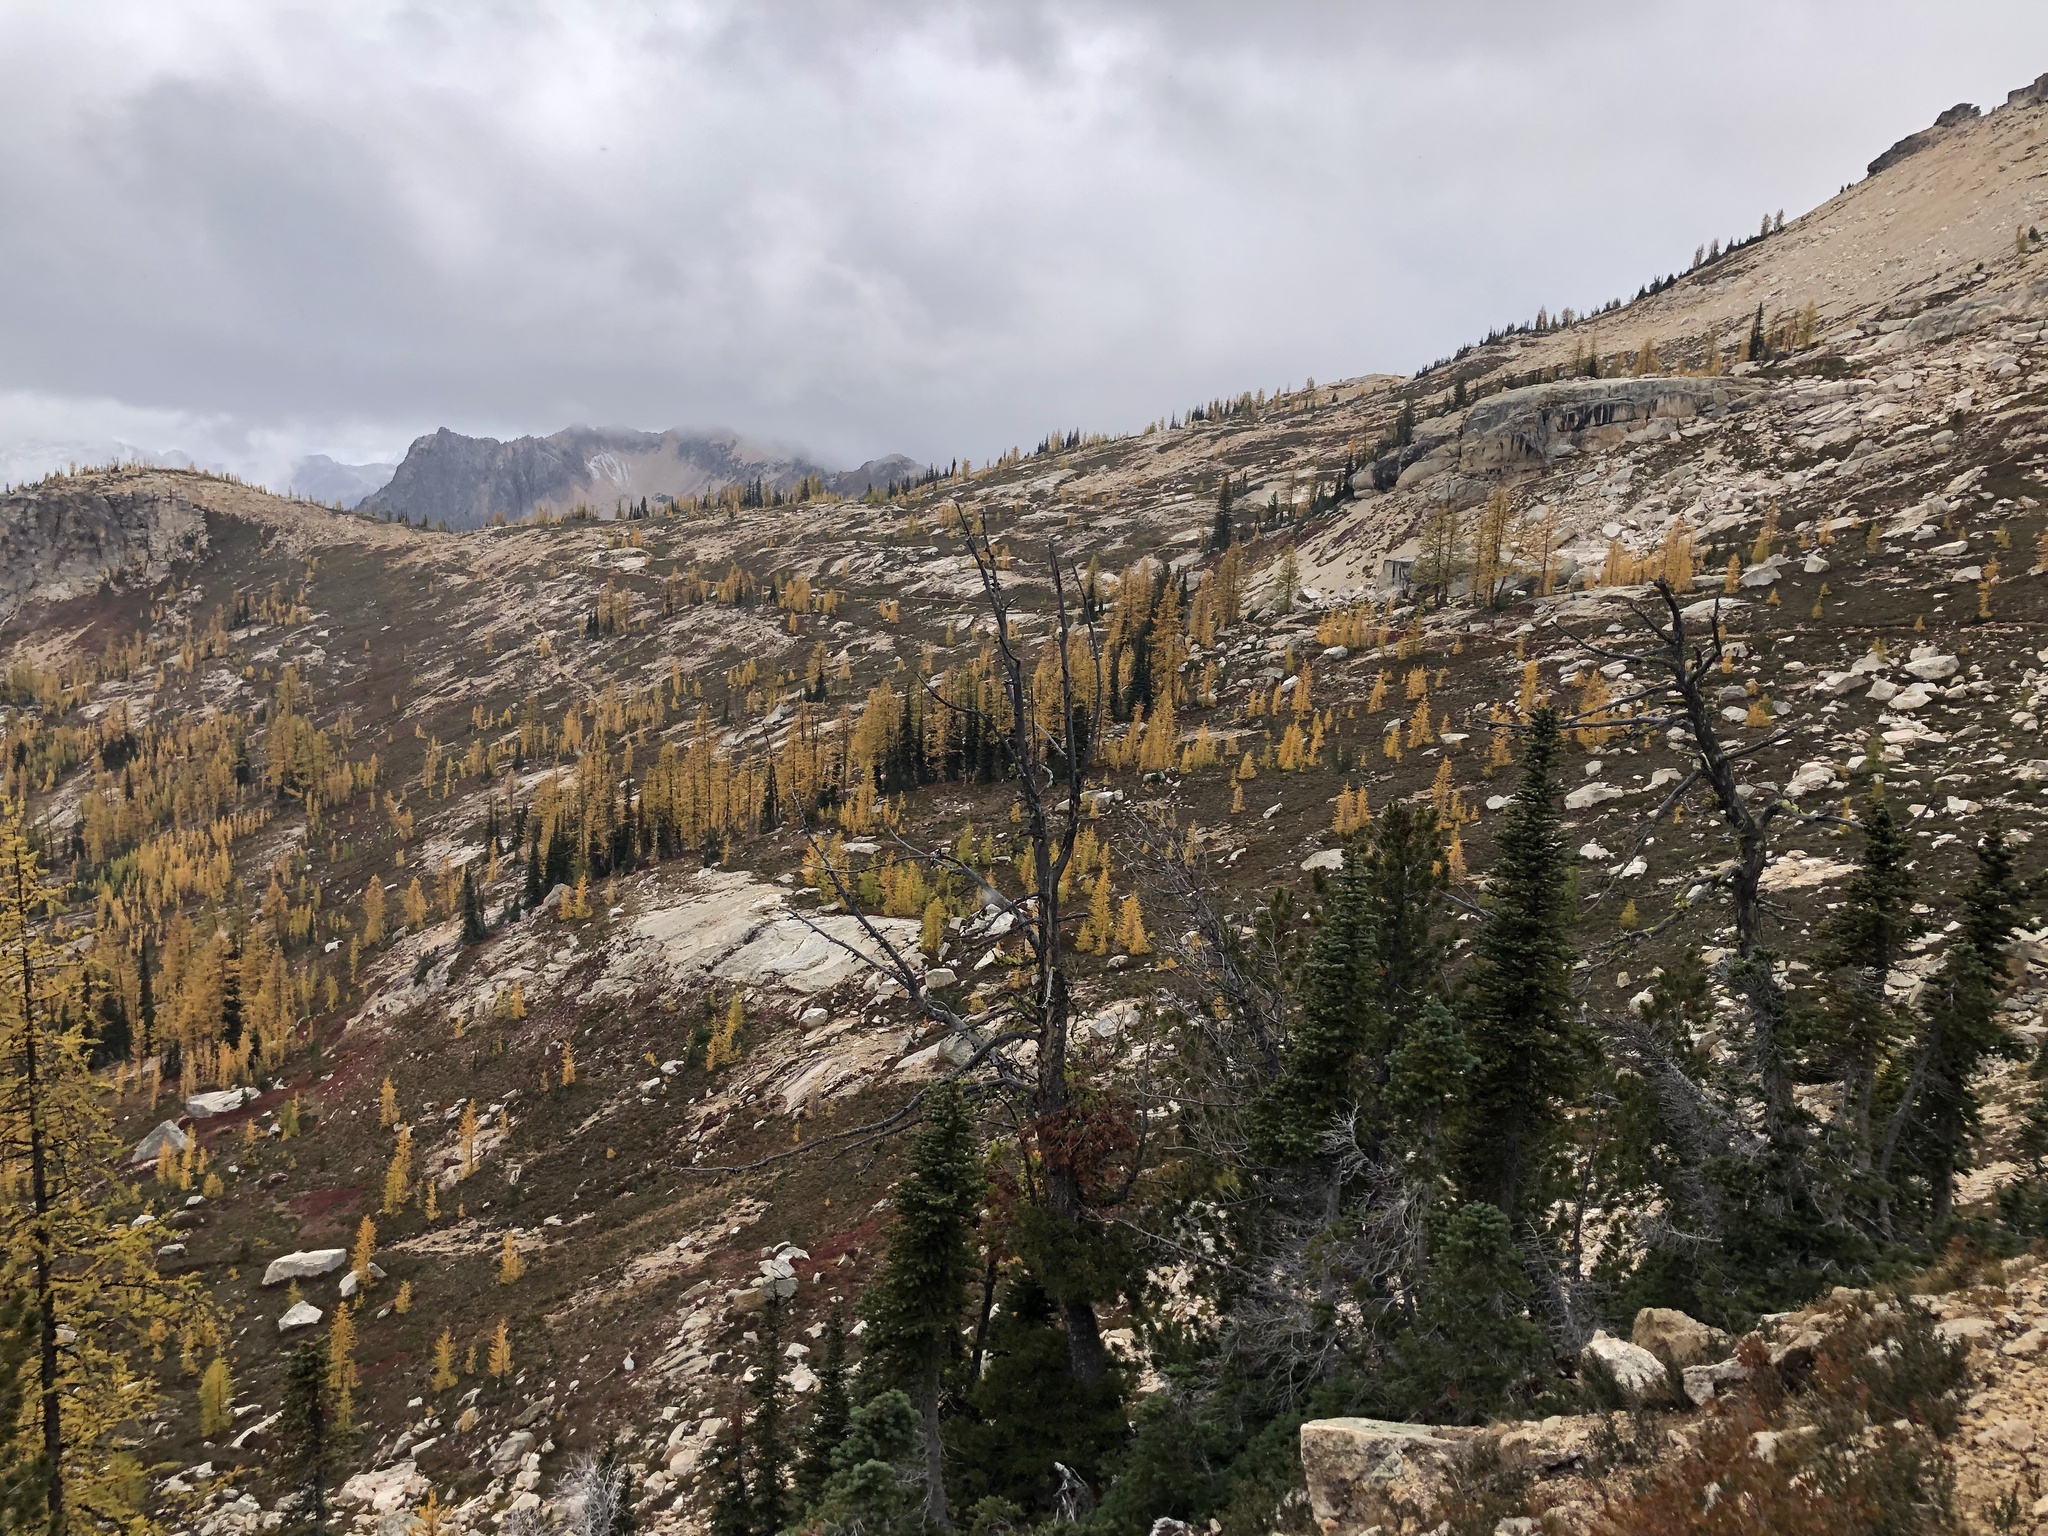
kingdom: Plantae
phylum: Tracheophyta
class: Pinopsida
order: Pinales
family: Pinaceae
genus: Abies
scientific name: Abies lasiocarpa
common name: Subalpine fir
